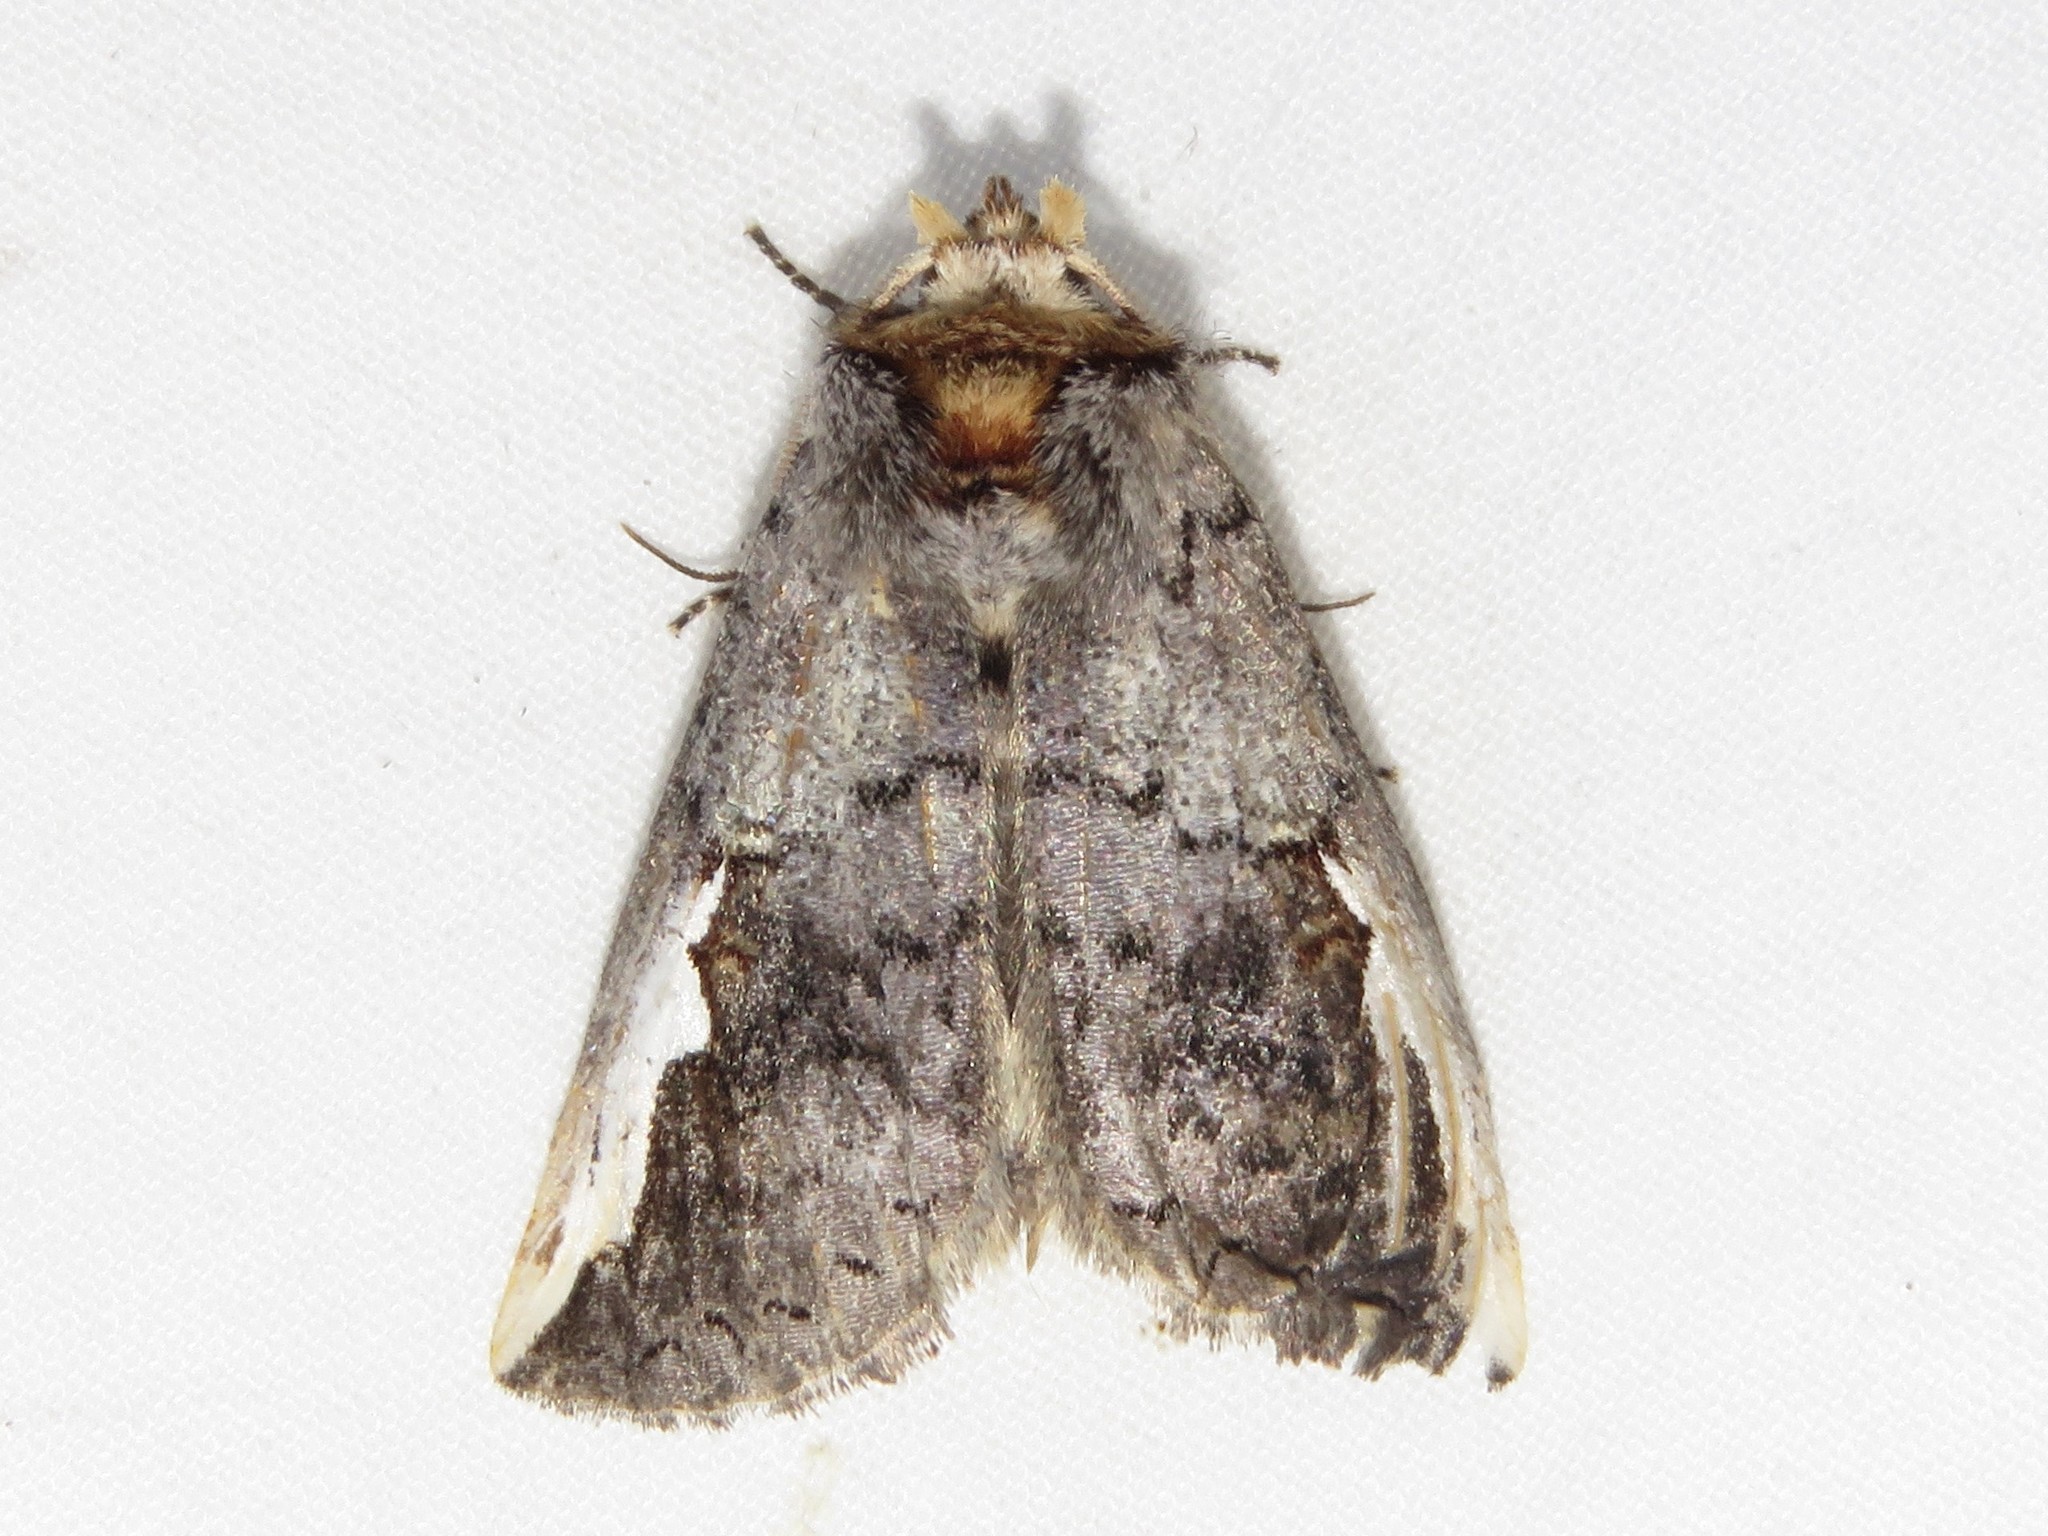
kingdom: Animalia
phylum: Arthropoda
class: Insecta
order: Lepidoptera
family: Notodontidae
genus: Symmerista
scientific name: Symmerista albifrons
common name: White-headed prominent
